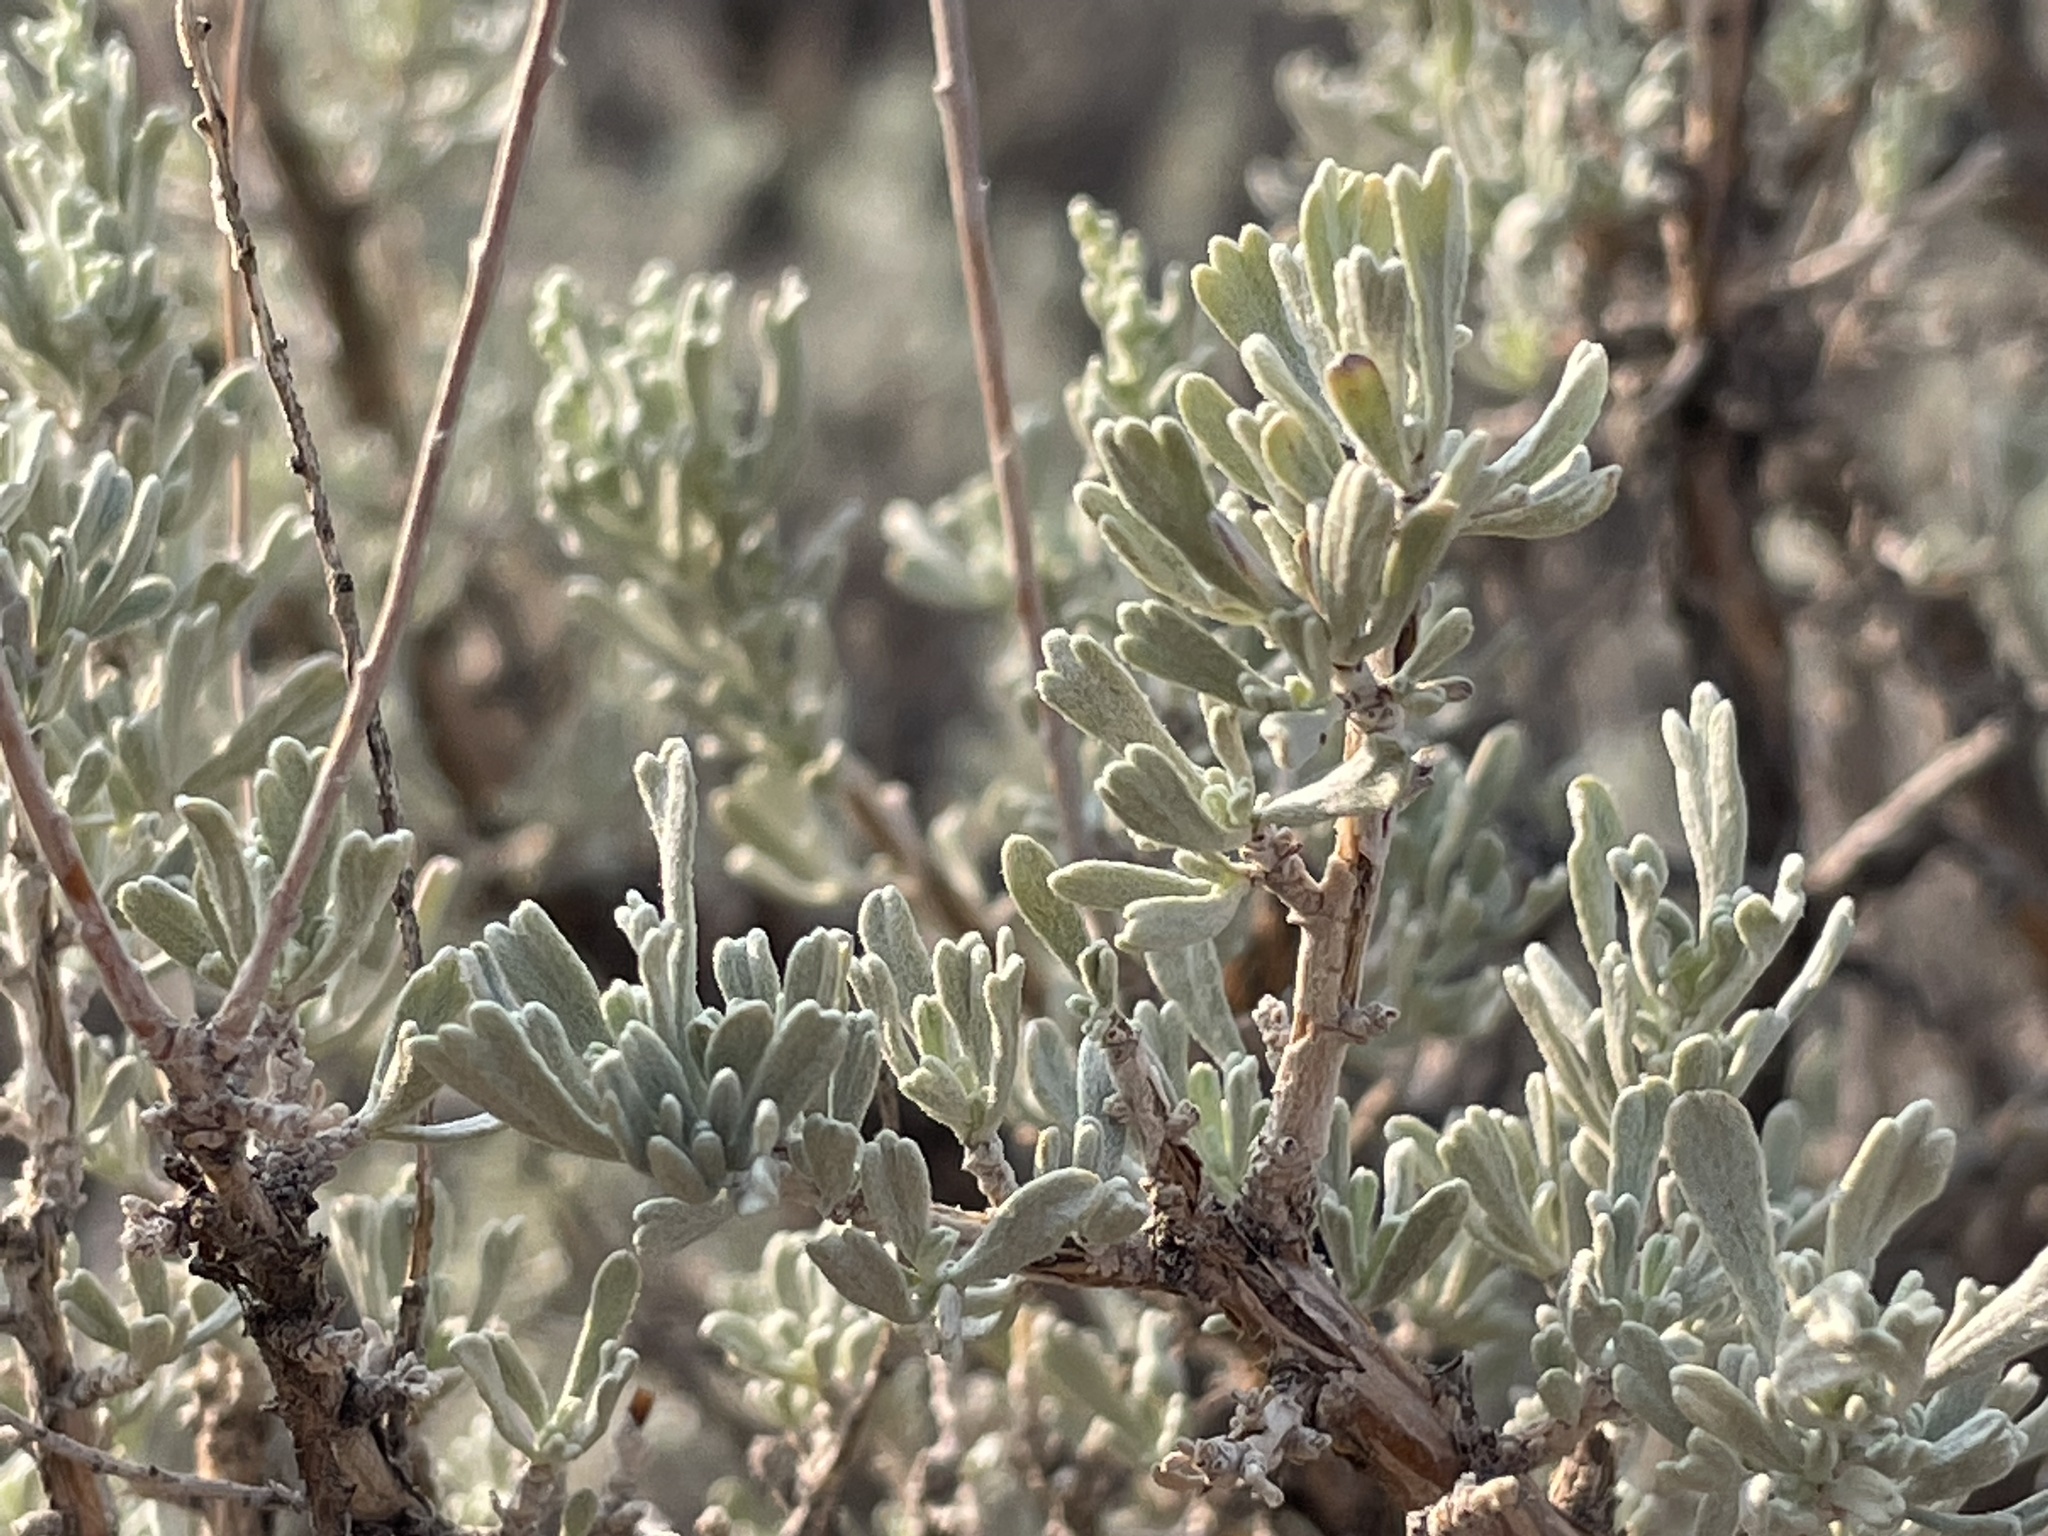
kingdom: Plantae
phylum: Tracheophyta
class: Magnoliopsida
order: Asterales
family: Asteraceae
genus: Artemisia
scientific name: Artemisia tridentata
